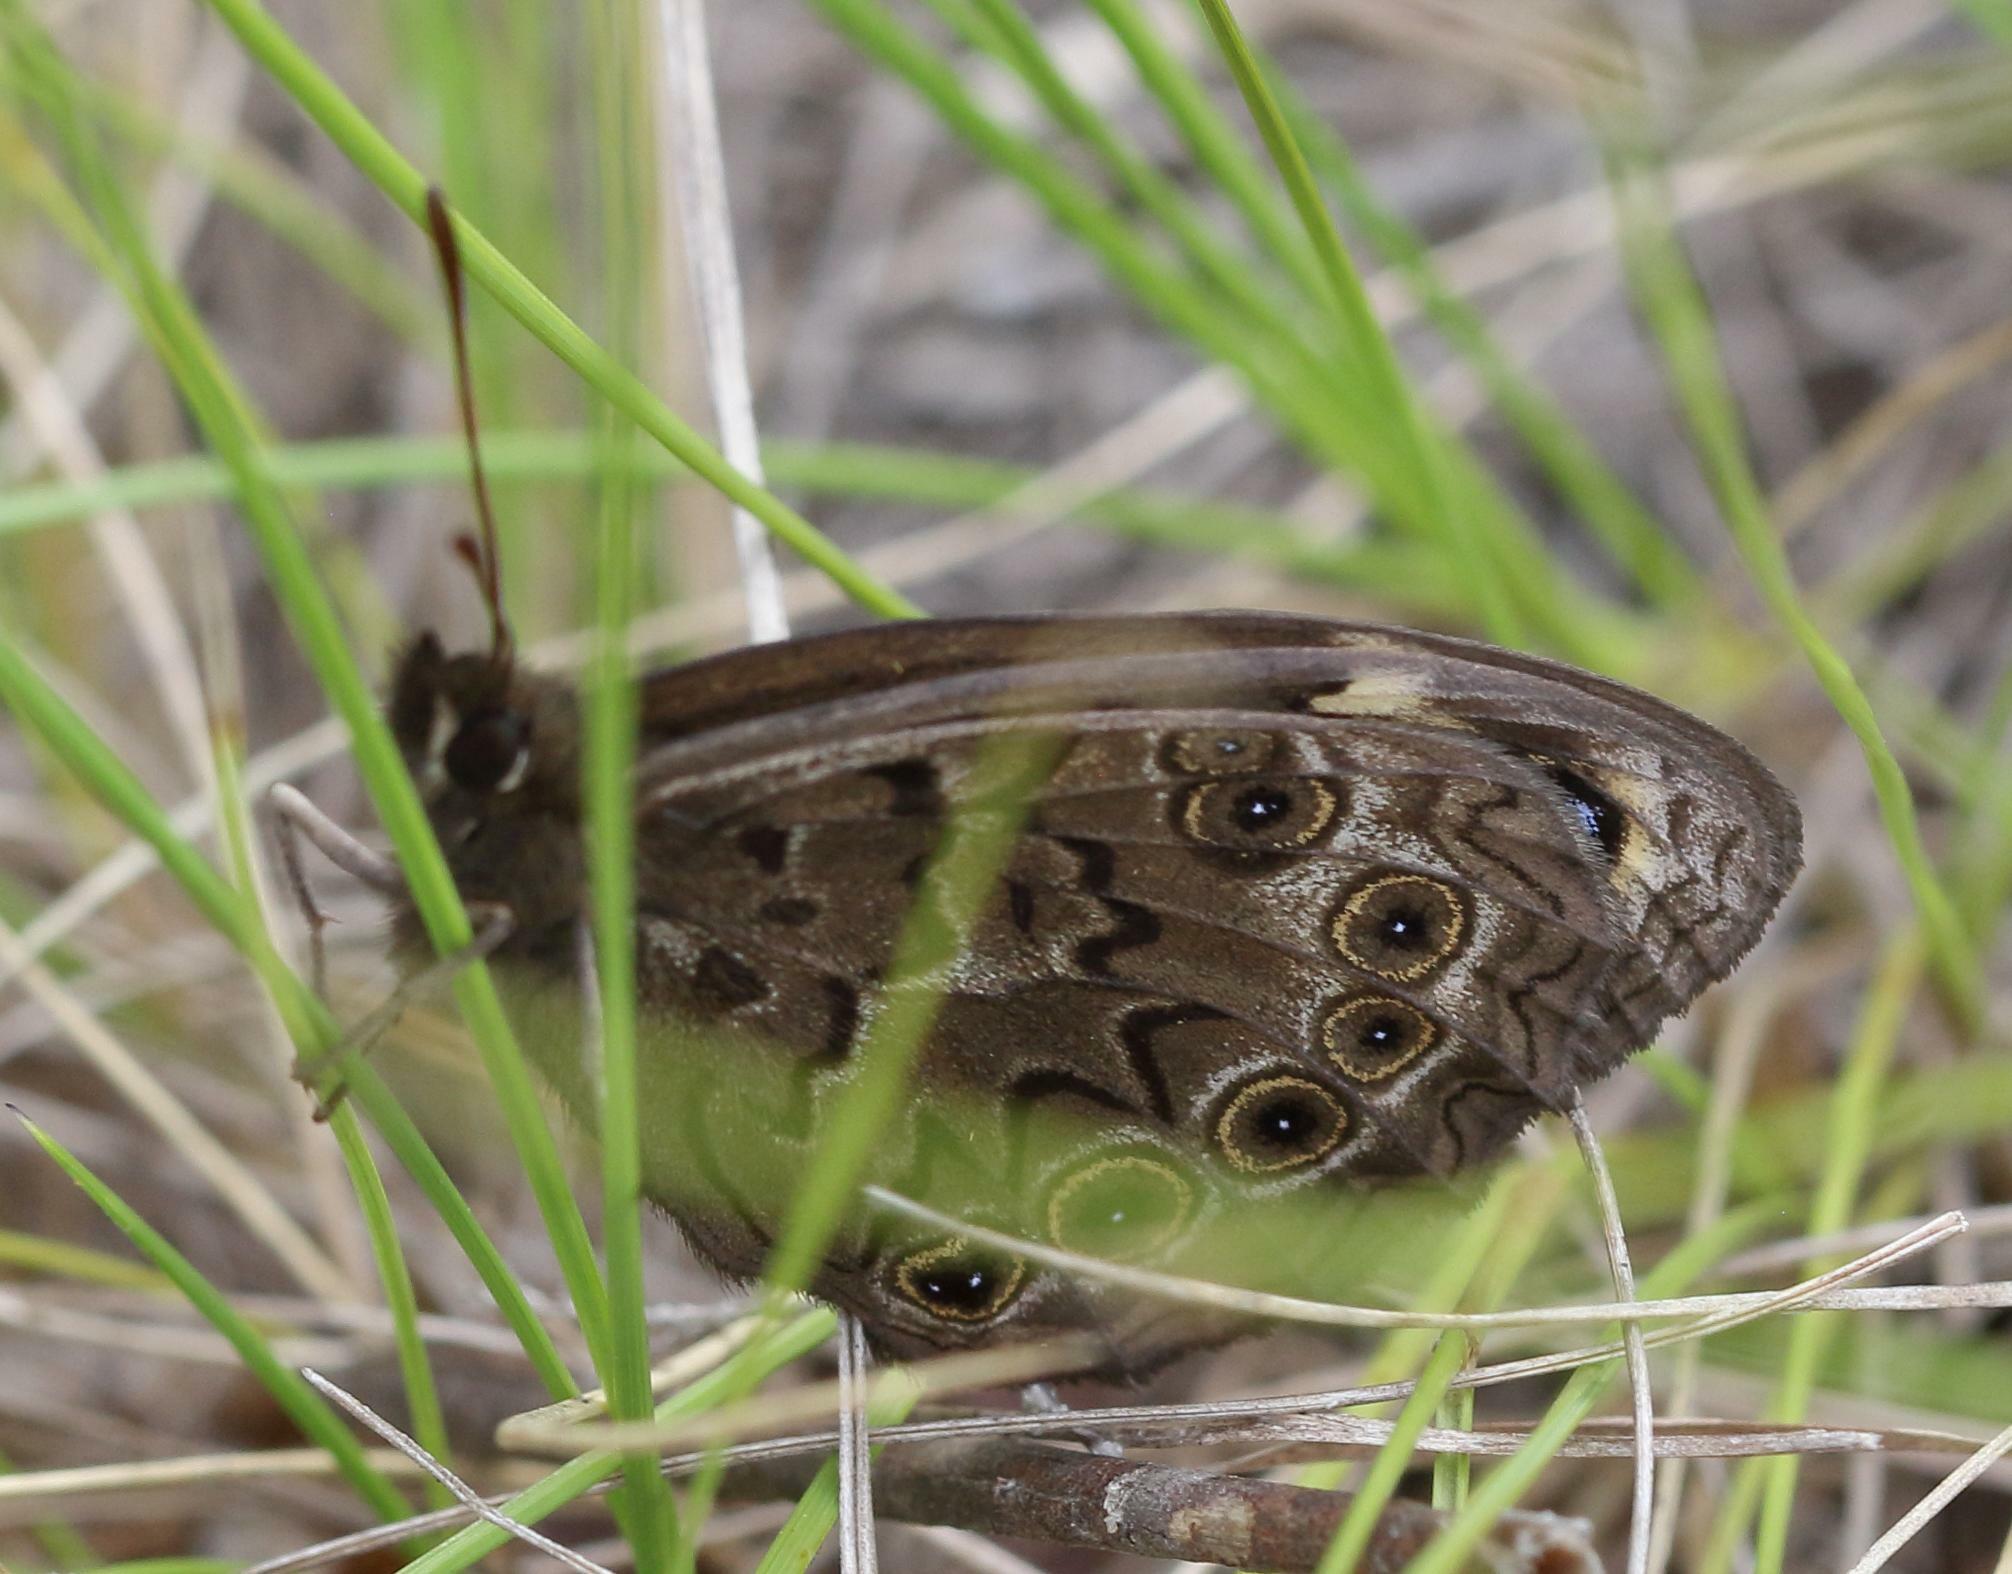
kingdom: Animalia
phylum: Arthropoda
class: Insecta
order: Lepidoptera
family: Nymphalidae
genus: Dira
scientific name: Dira clytus
